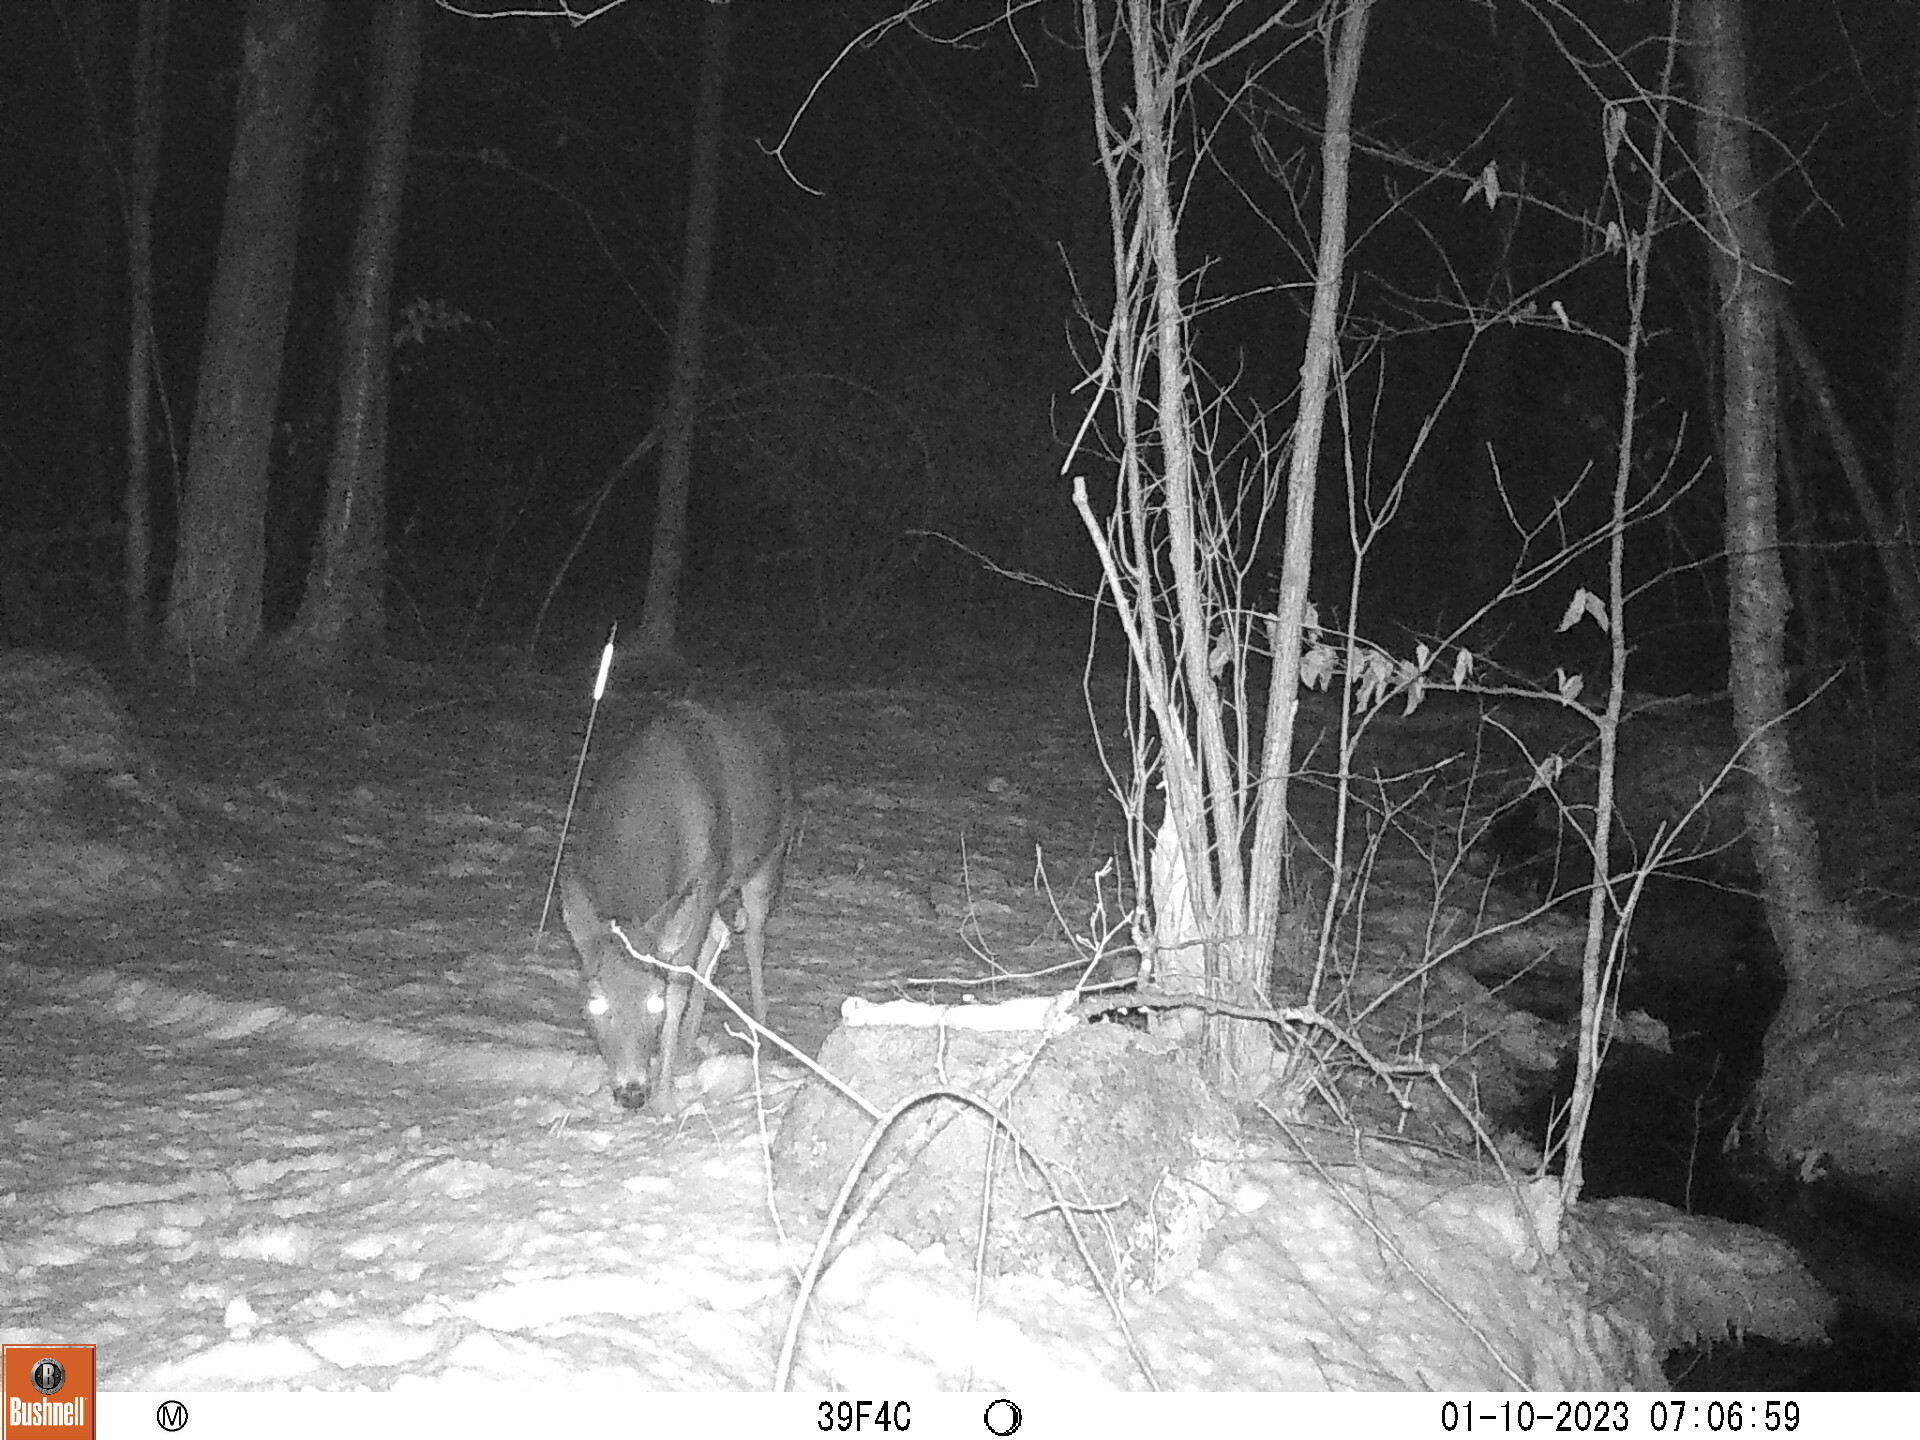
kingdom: Animalia
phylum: Chordata
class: Mammalia
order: Artiodactyla
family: Cervidae
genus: Odocoileus
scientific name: Odocoileus virginianus
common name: White-tailed deer
